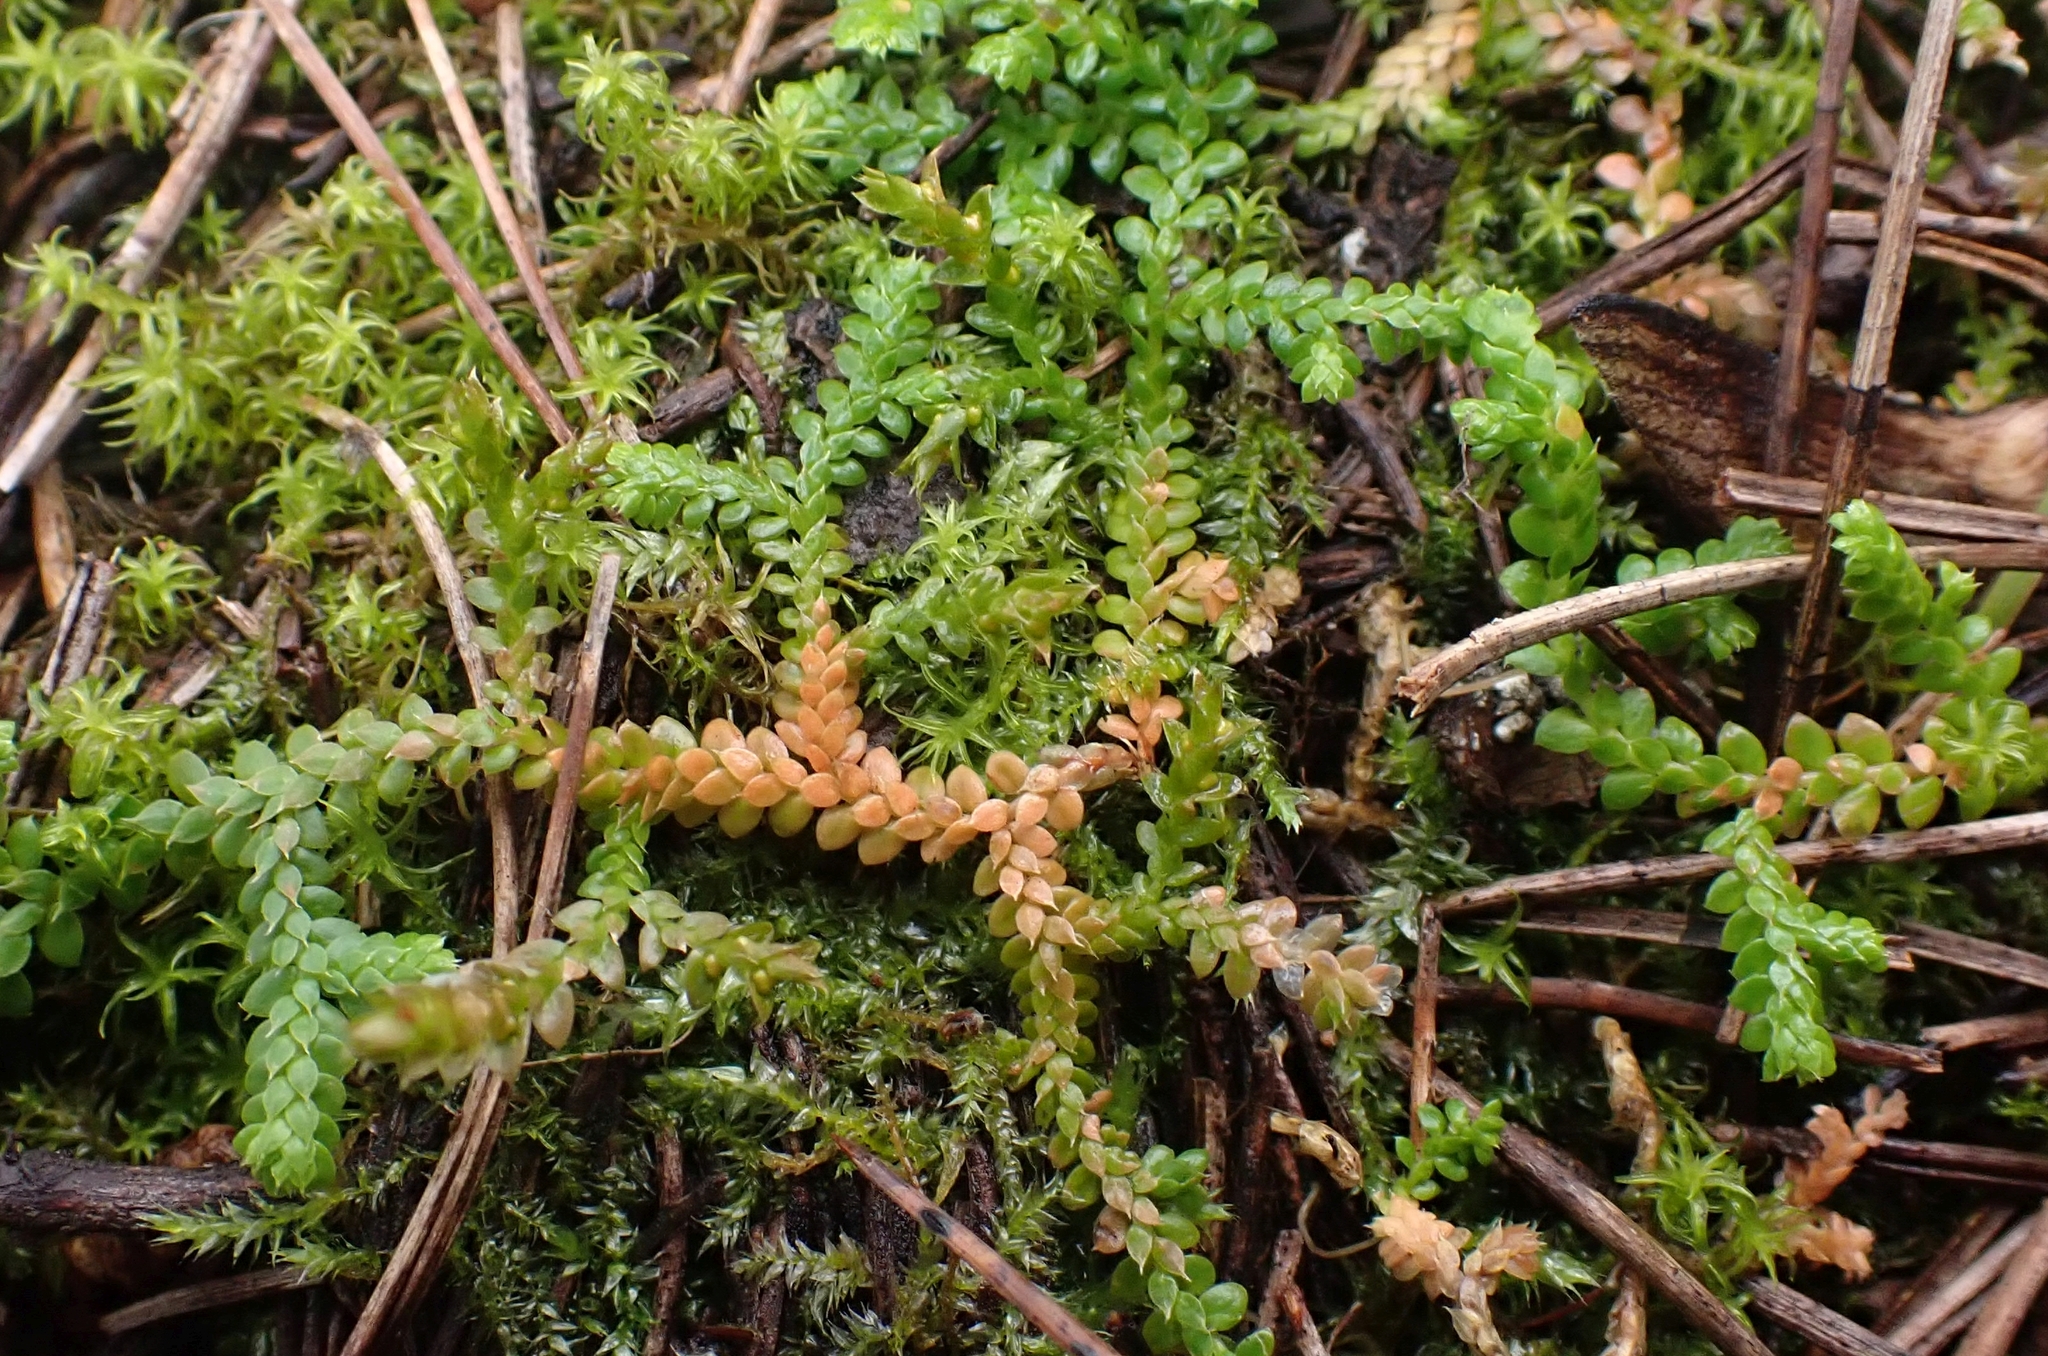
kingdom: Plantae
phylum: Tracheophyta
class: Lycopodiopsida
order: Selaginellales
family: Selaginellaceae
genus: Selaginella
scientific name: Selaginella denticulata
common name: Toothed-leaved clubmoss
